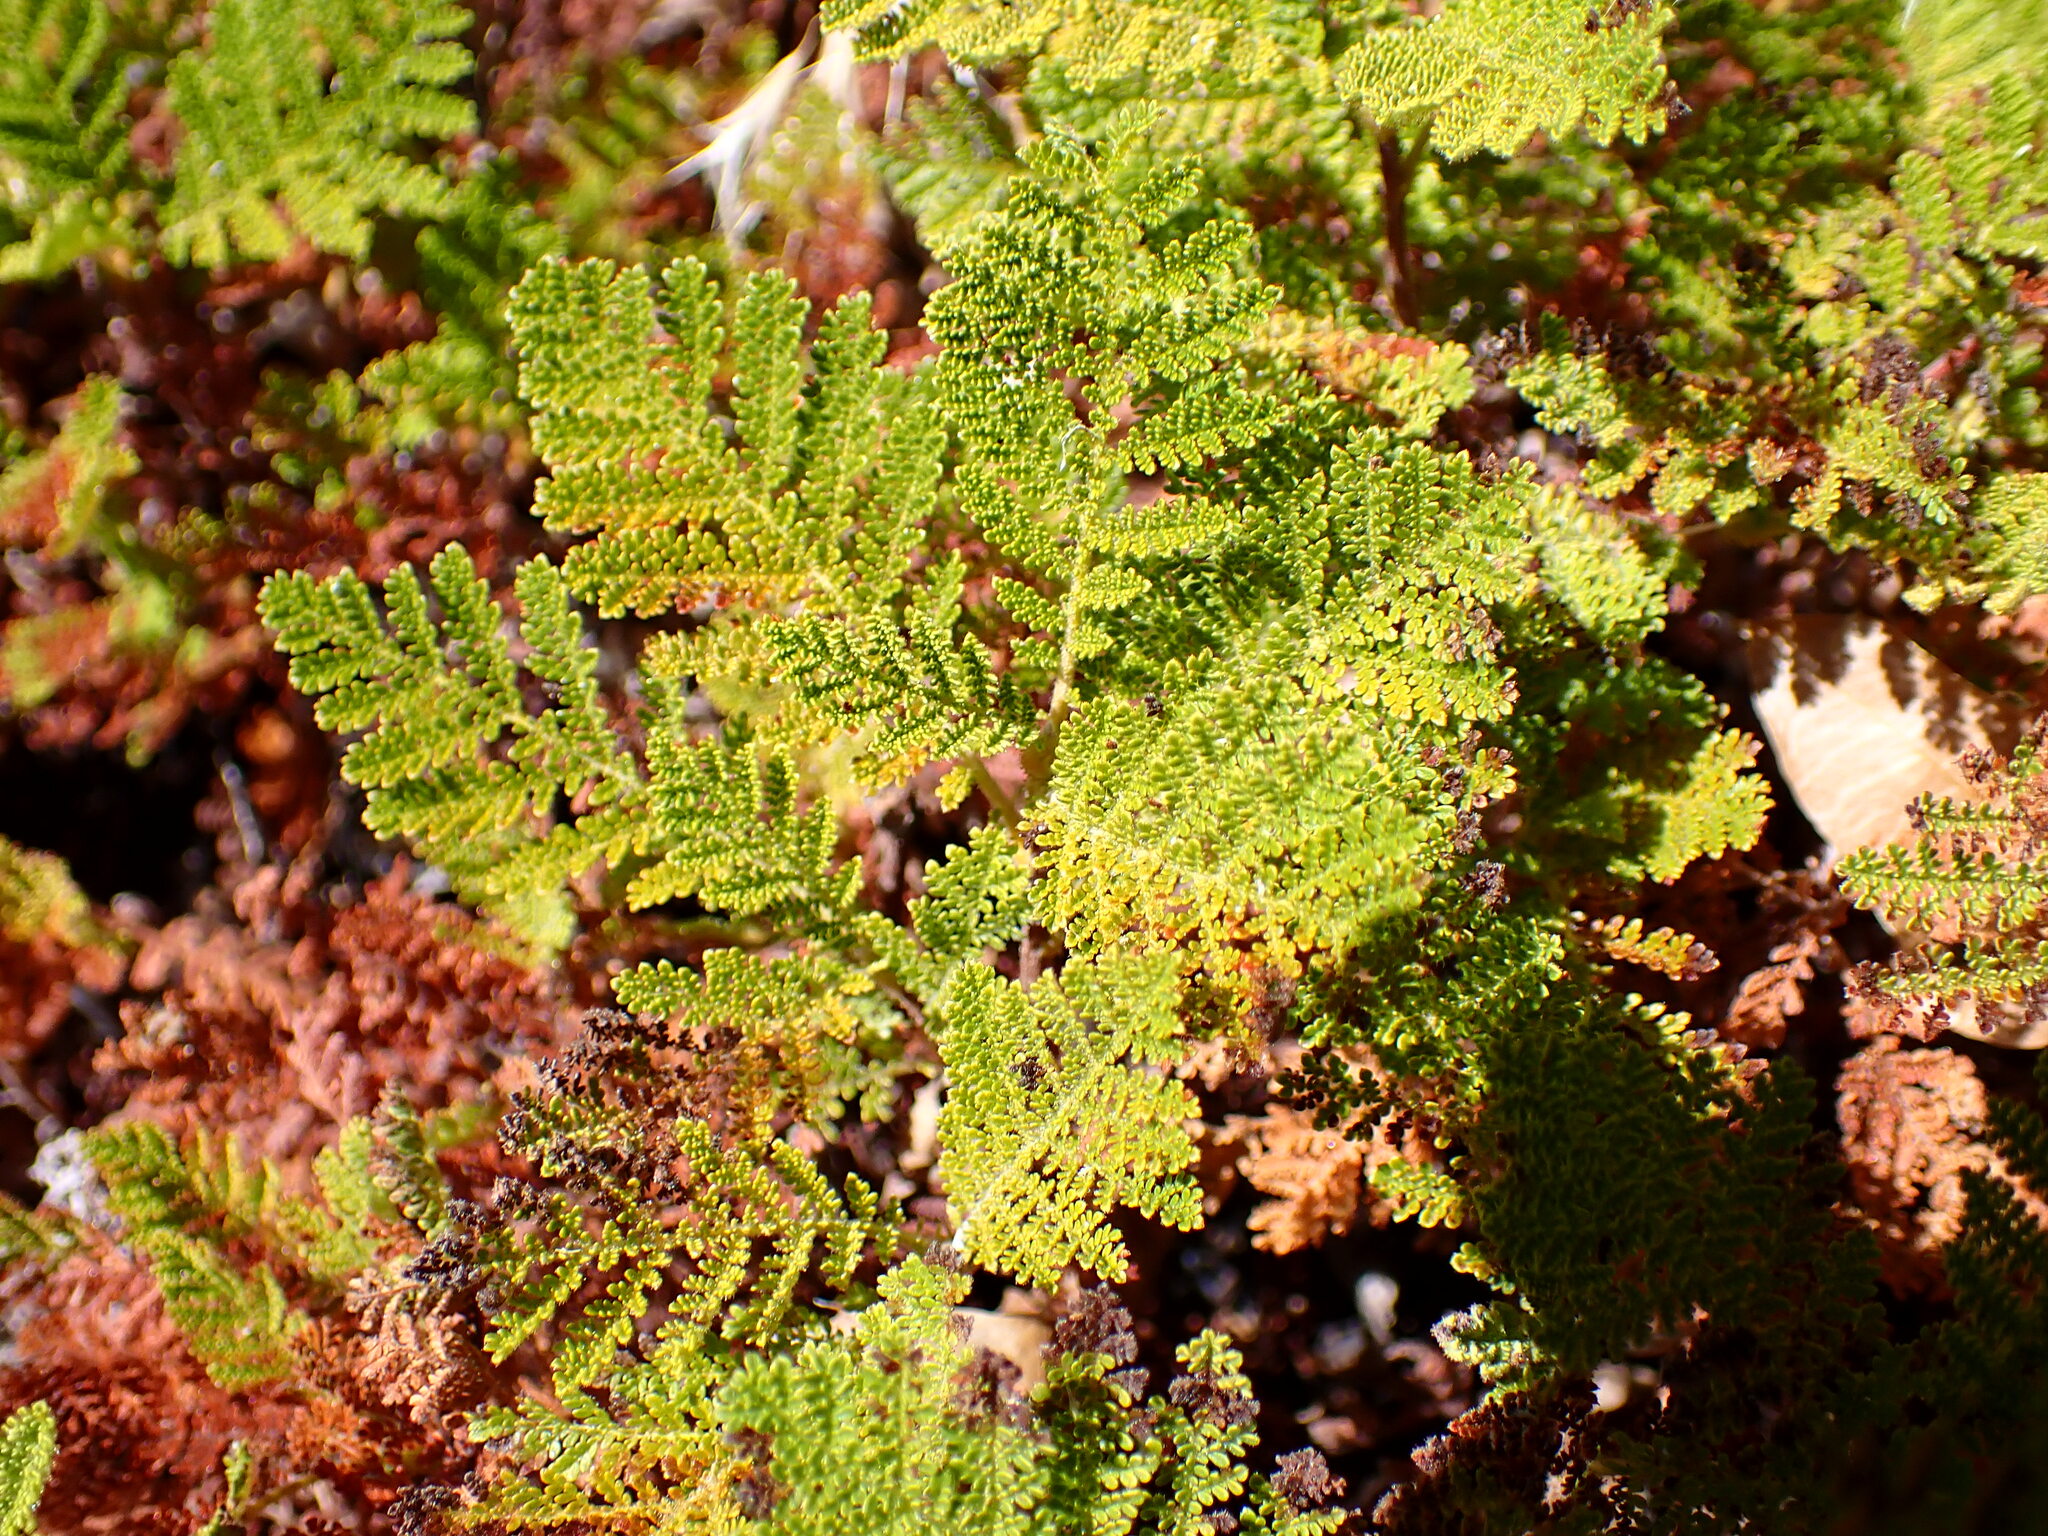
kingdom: Plantae
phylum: Tracheophyta
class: Magnoliopsida
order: Rosales
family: Rosaceae
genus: Chamaebatia
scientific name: Chamaebatia foliolosa
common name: Mountain misery
